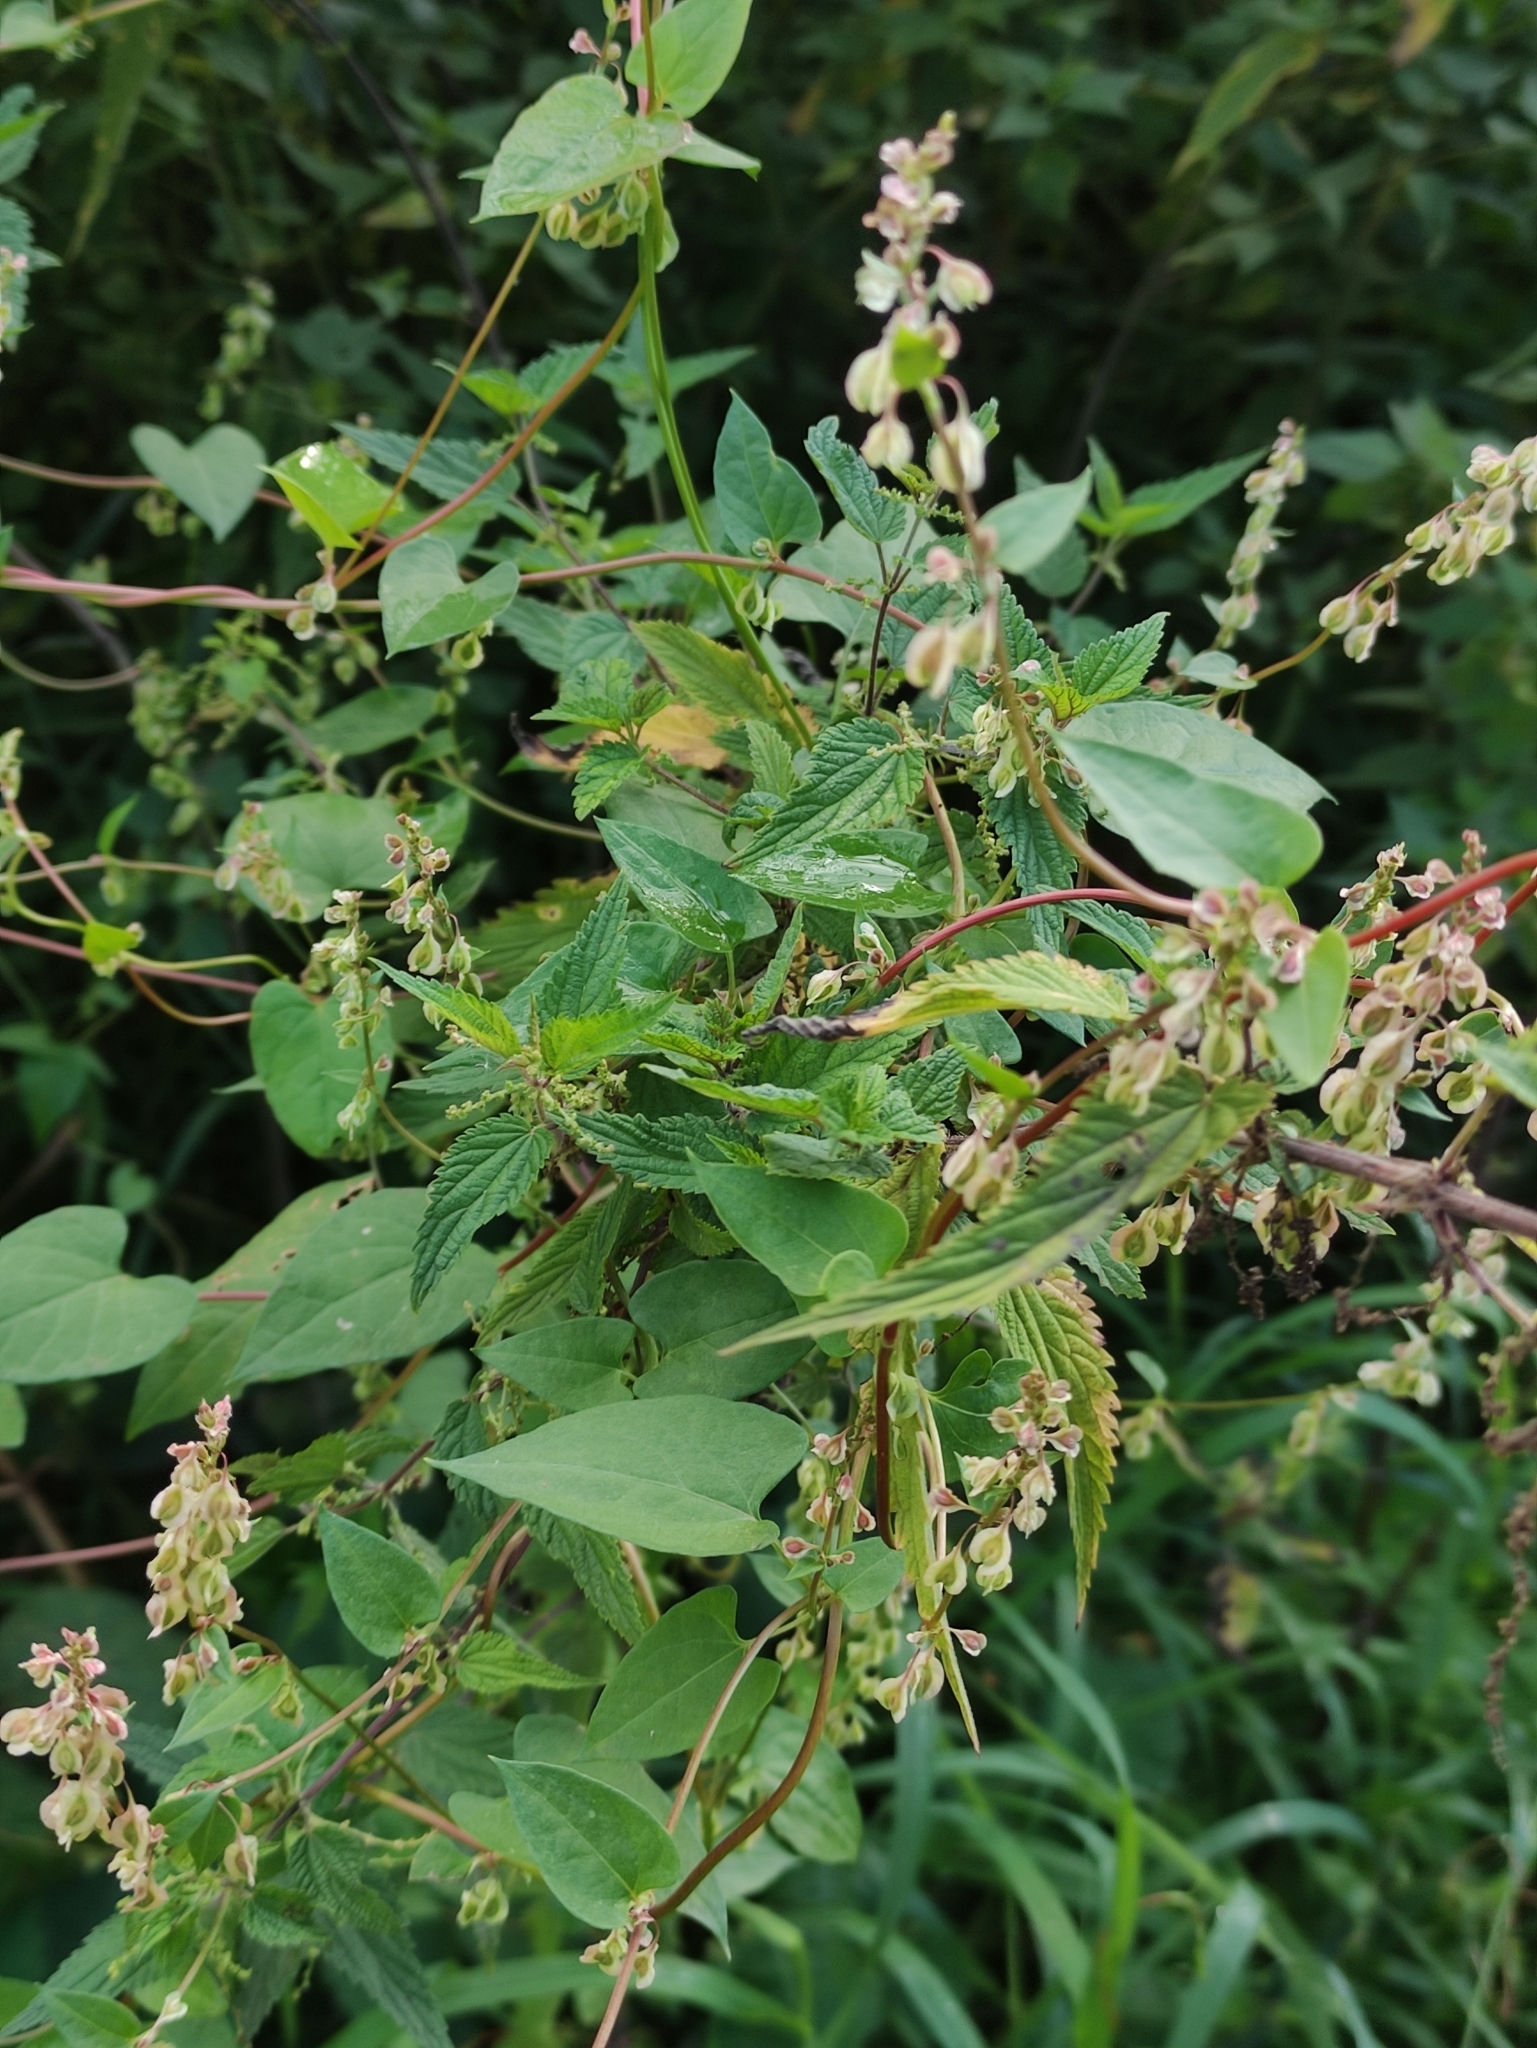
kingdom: Plantae
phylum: Tracheophyta
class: Magnoliopsida
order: Caryophyllales
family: Polygonaceae
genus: Fallopia
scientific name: Fallopia dumetorum
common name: Copse-bindweed
